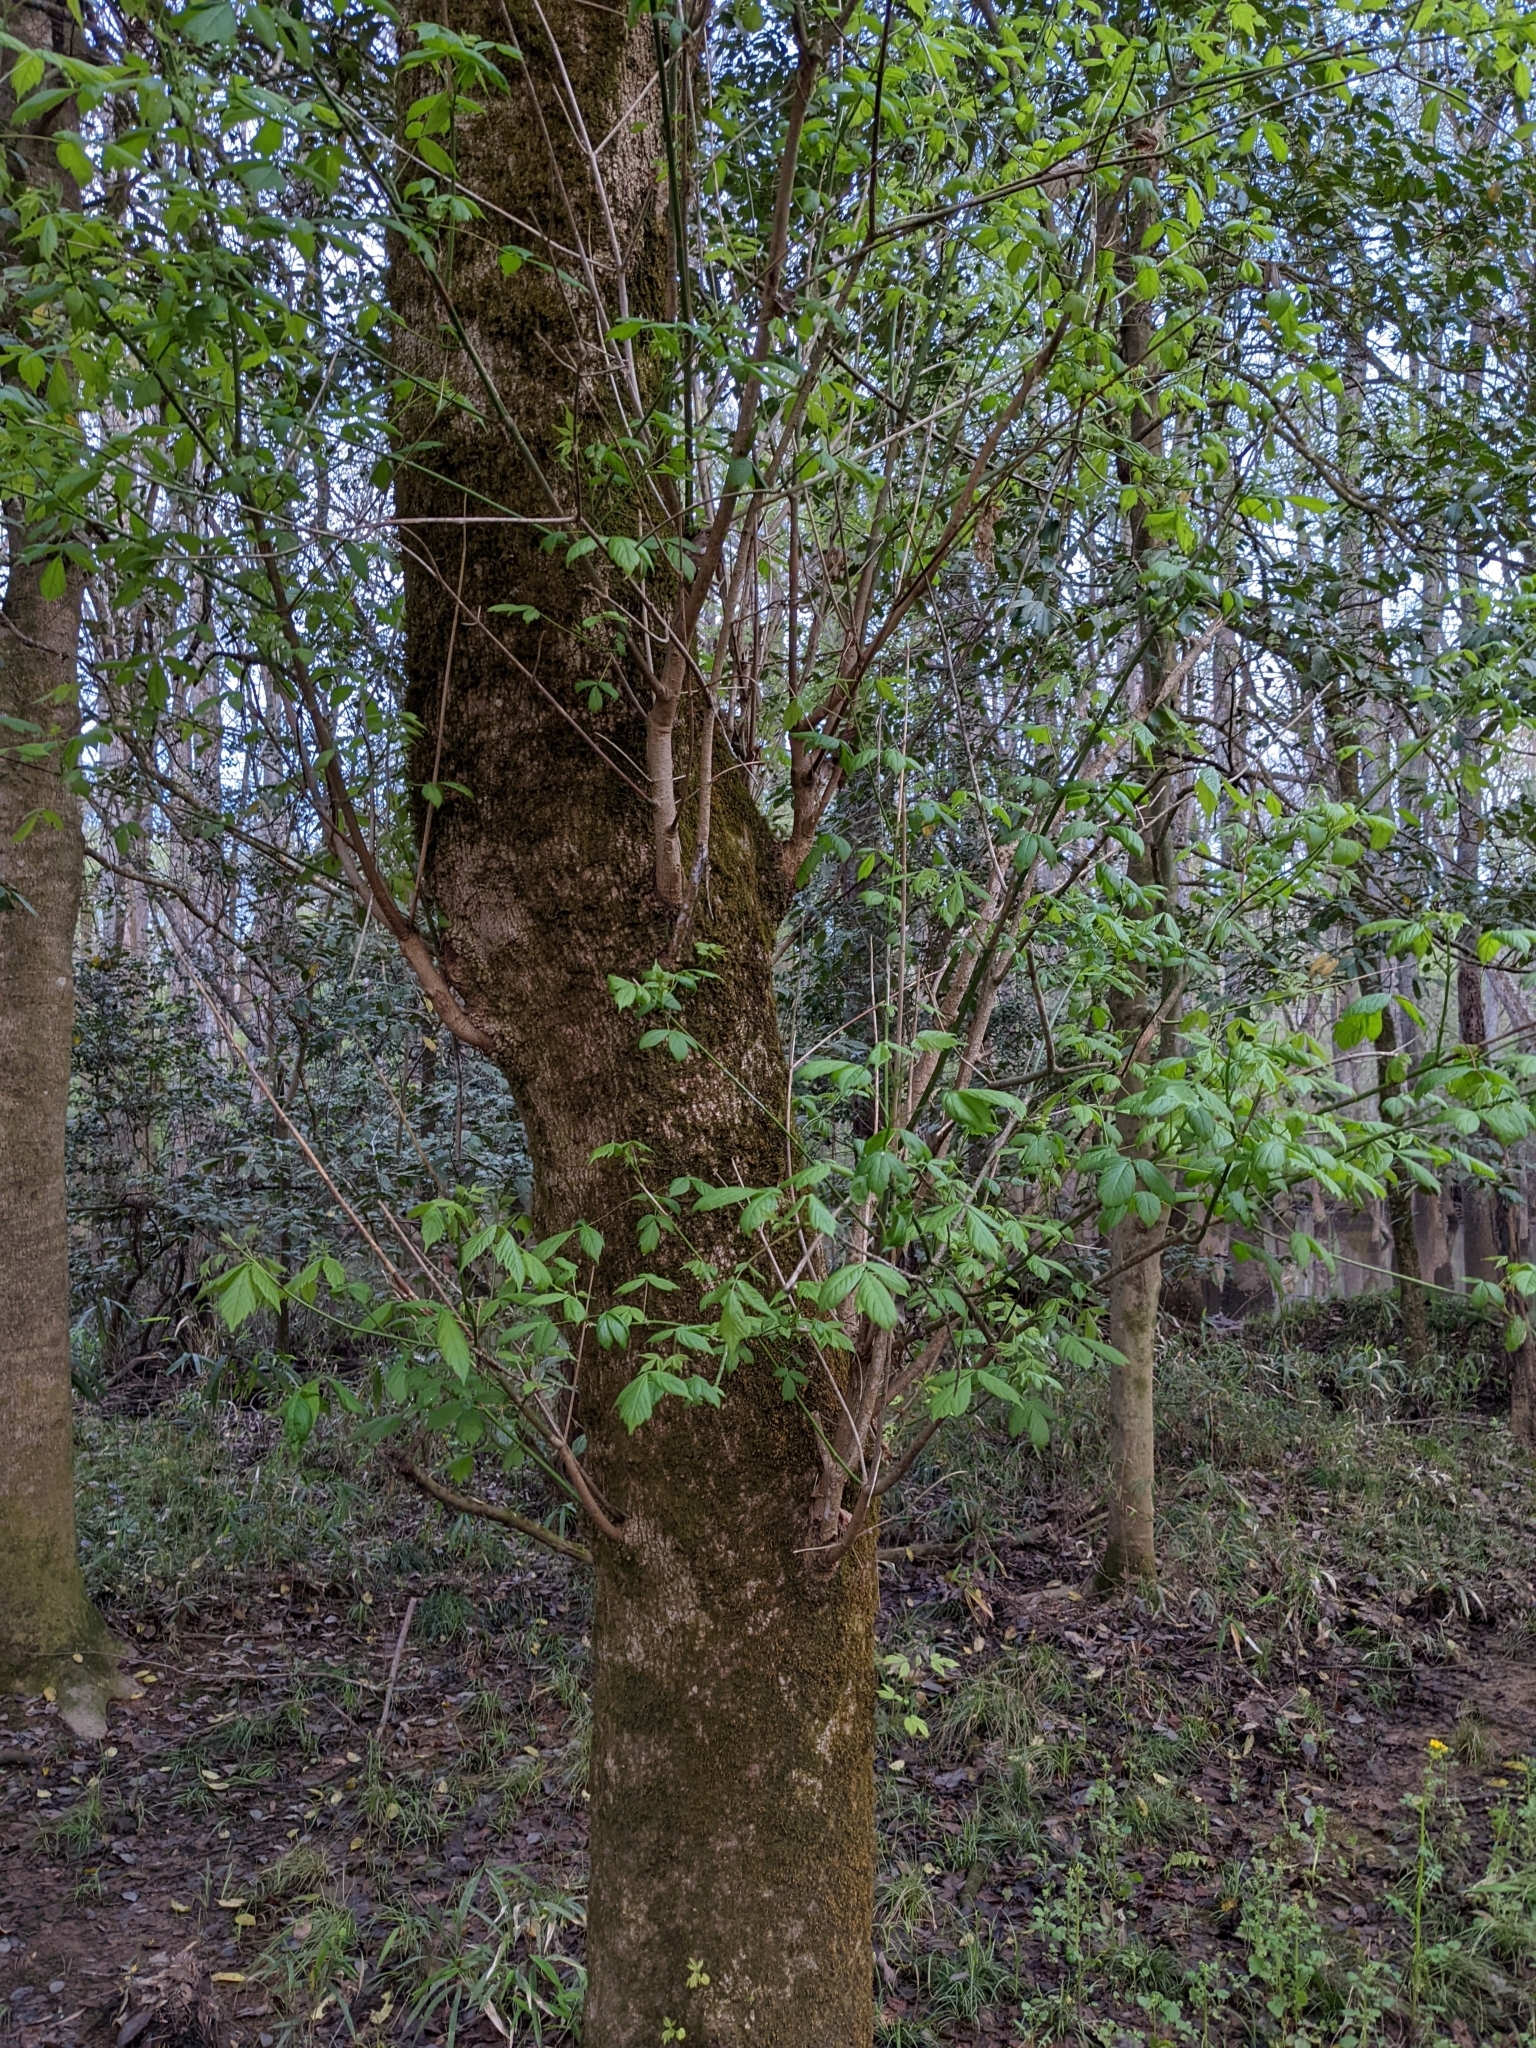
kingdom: Plantae
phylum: Tracheophyta
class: Magnoliopsida
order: Sapindales
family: Sapindaceae
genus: Acer
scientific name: Acer negundo
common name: Ashleaf maple
